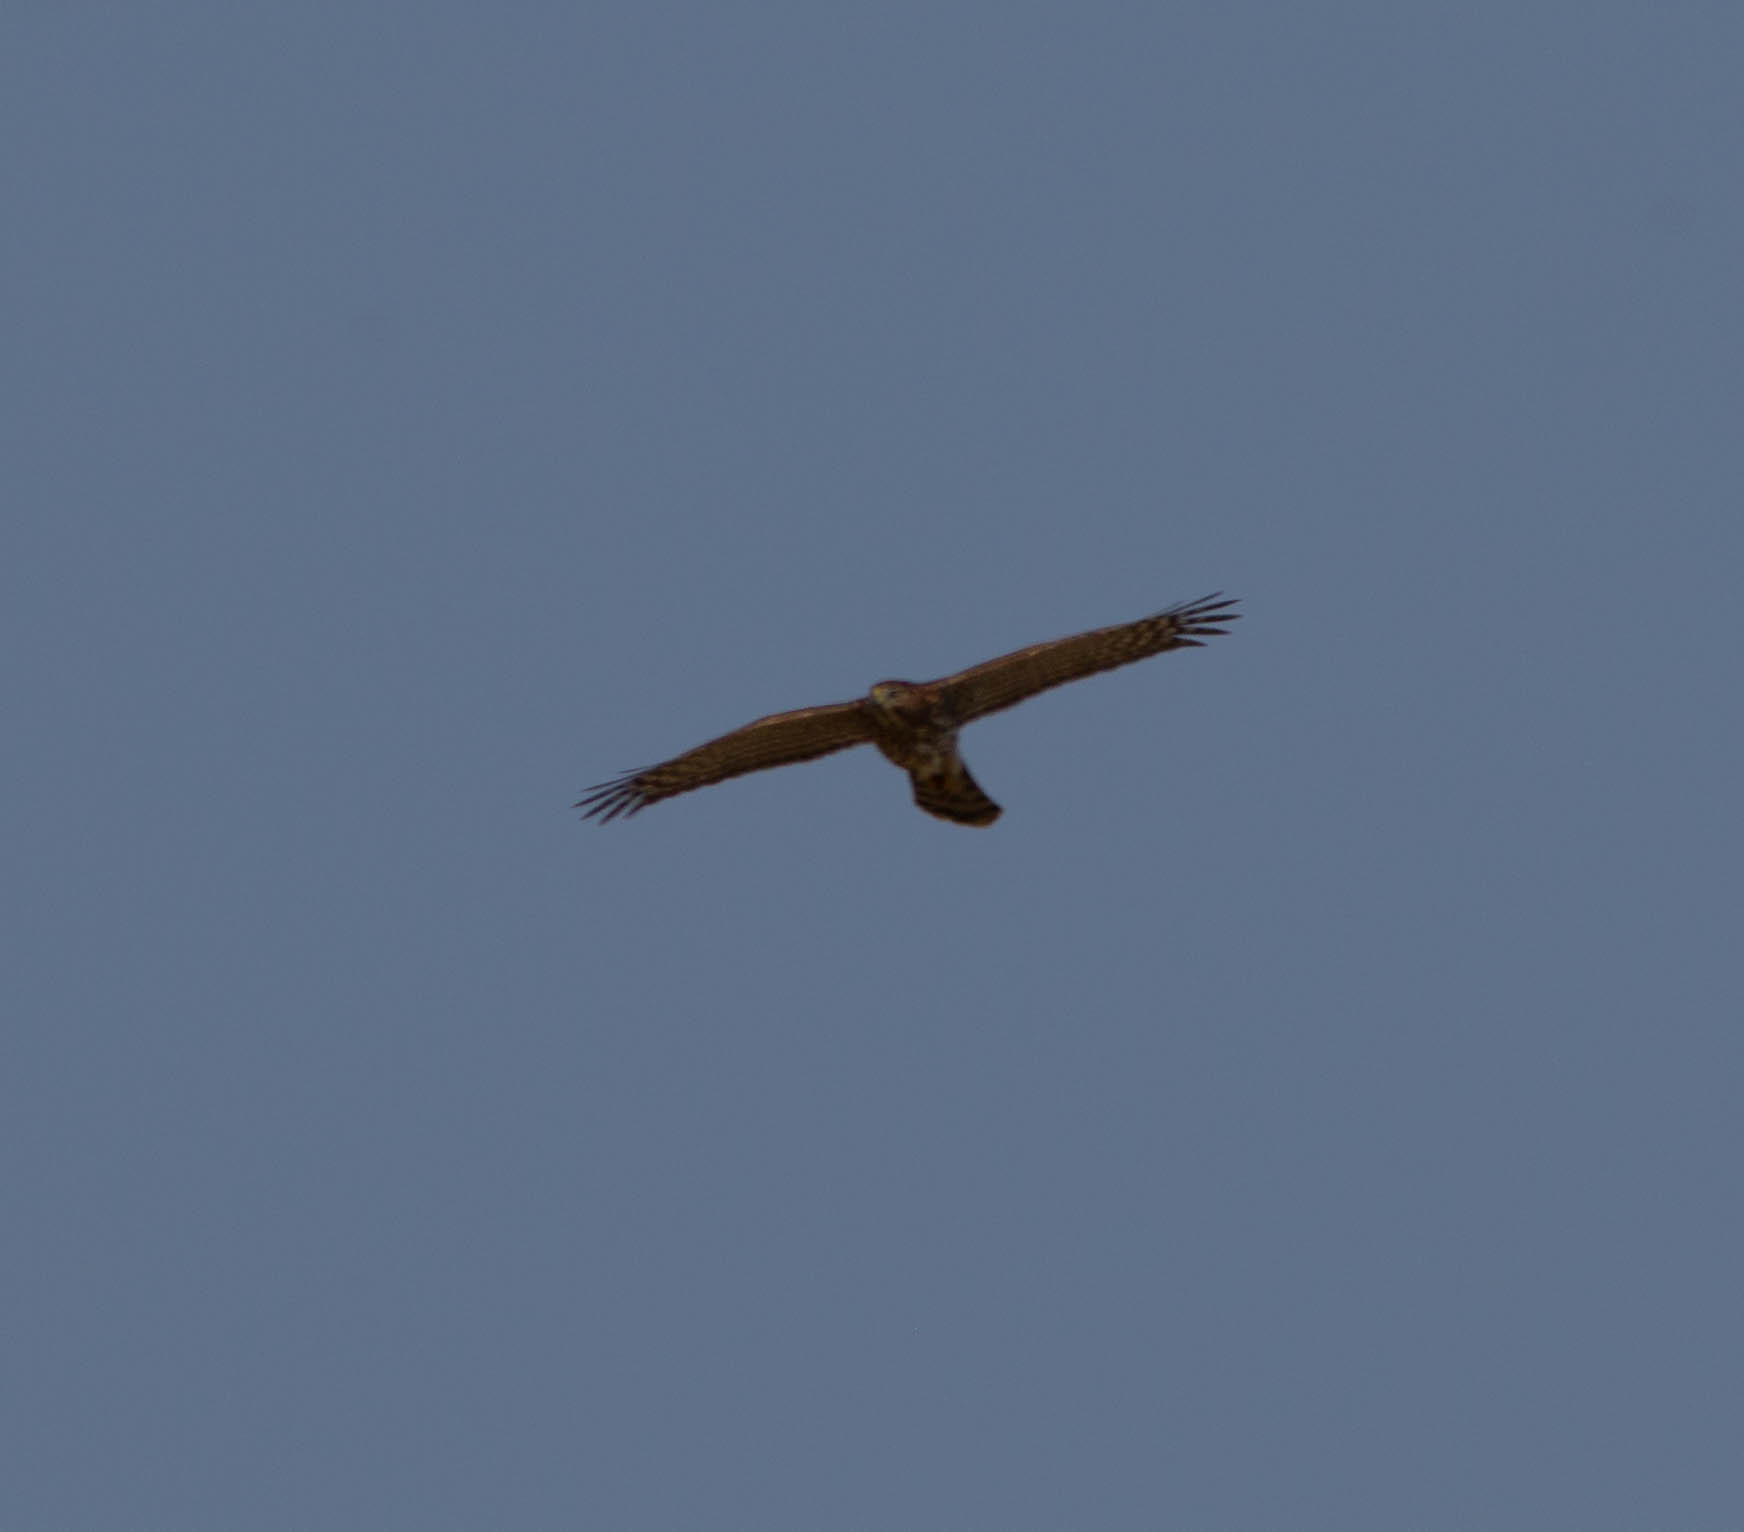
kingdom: Animalia
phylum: Chordata
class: Aves
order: Accipitriformes
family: Accipitridae
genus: Accipiter
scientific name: Accipiter cooperii
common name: Cooper's hawk
